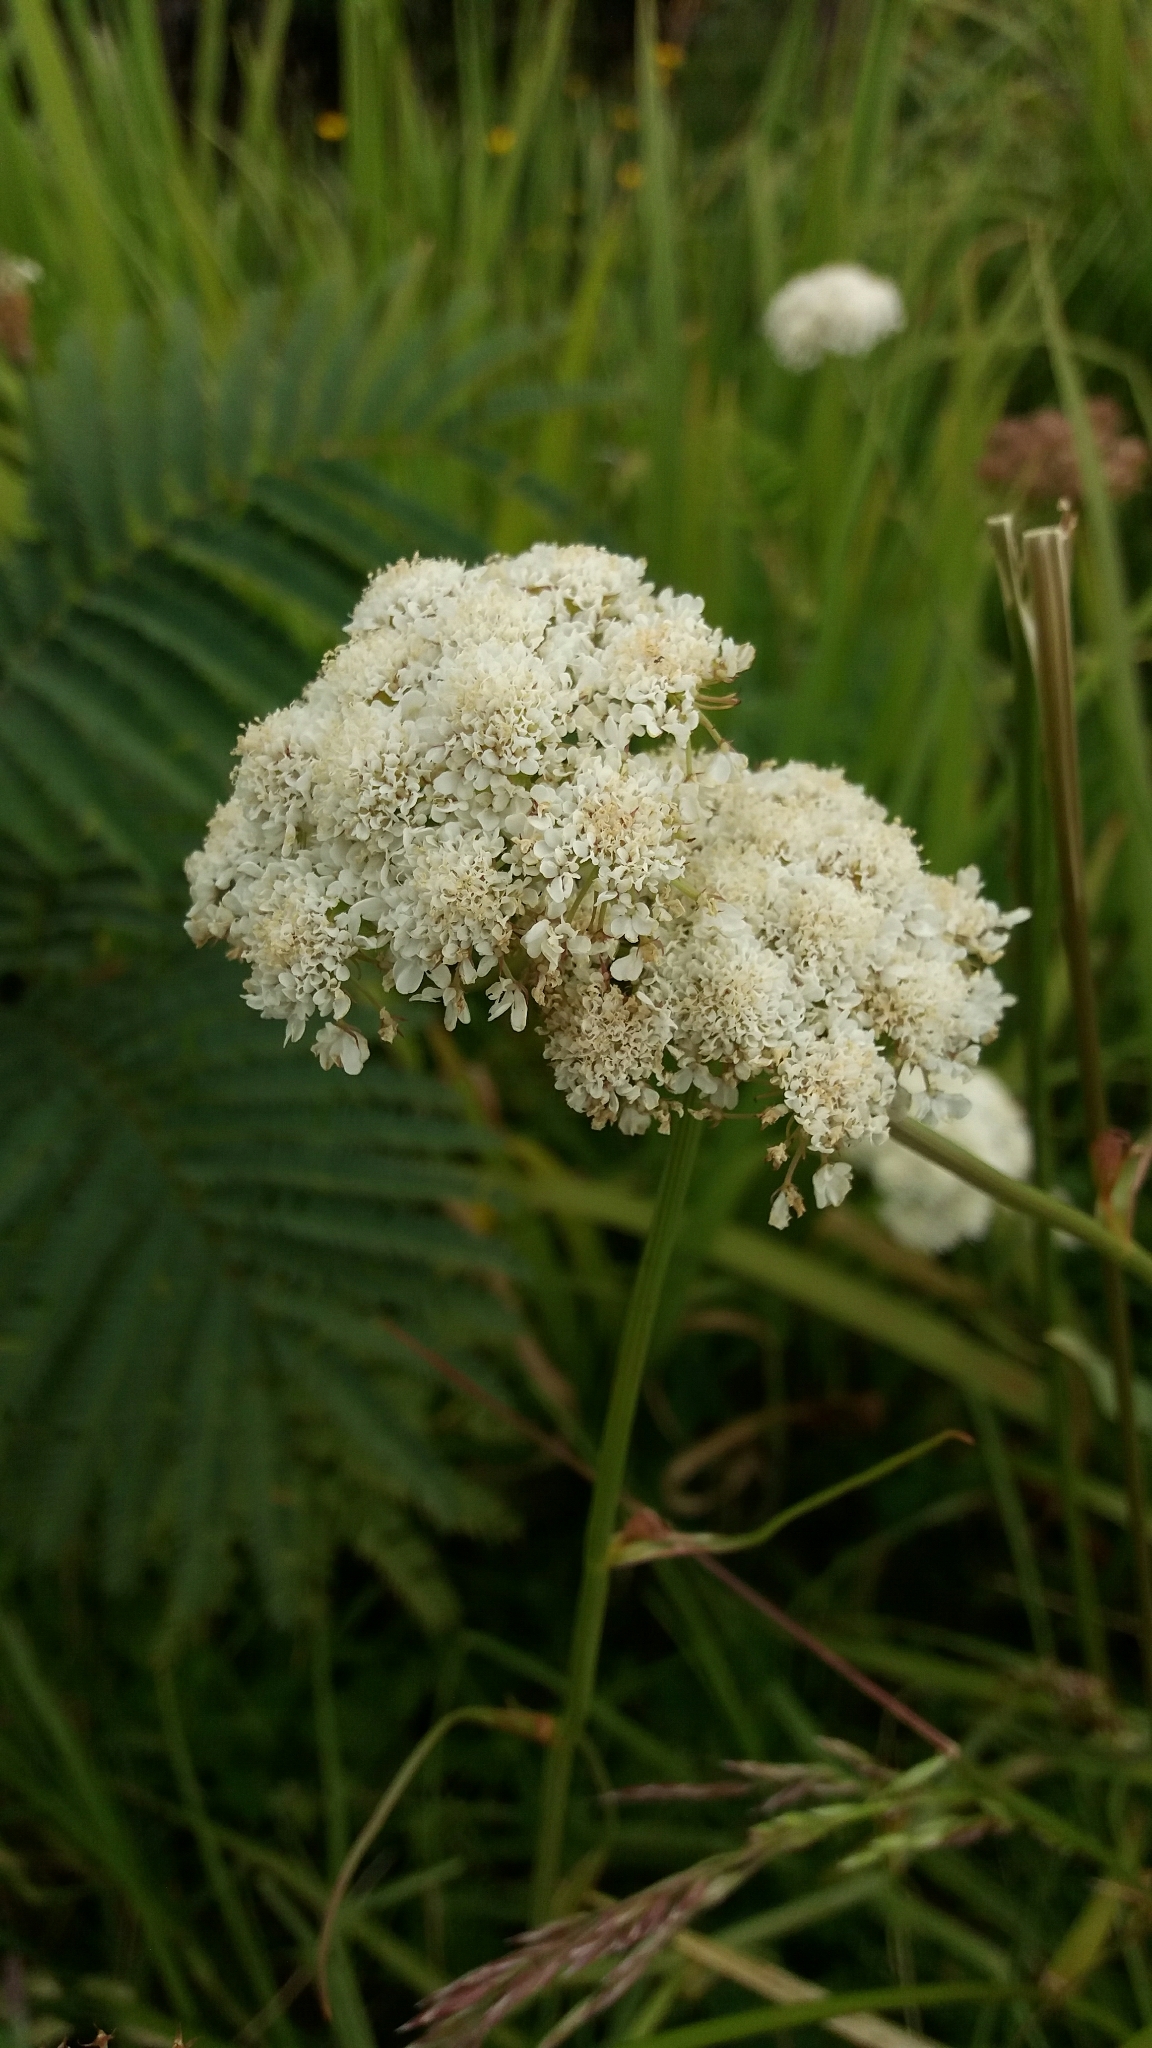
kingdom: Plantae
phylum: Tracheophyta
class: Magnoliopsida
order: Apiales
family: Apiaceae
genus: Daucus
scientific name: Daucus carota
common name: Wild carrot
